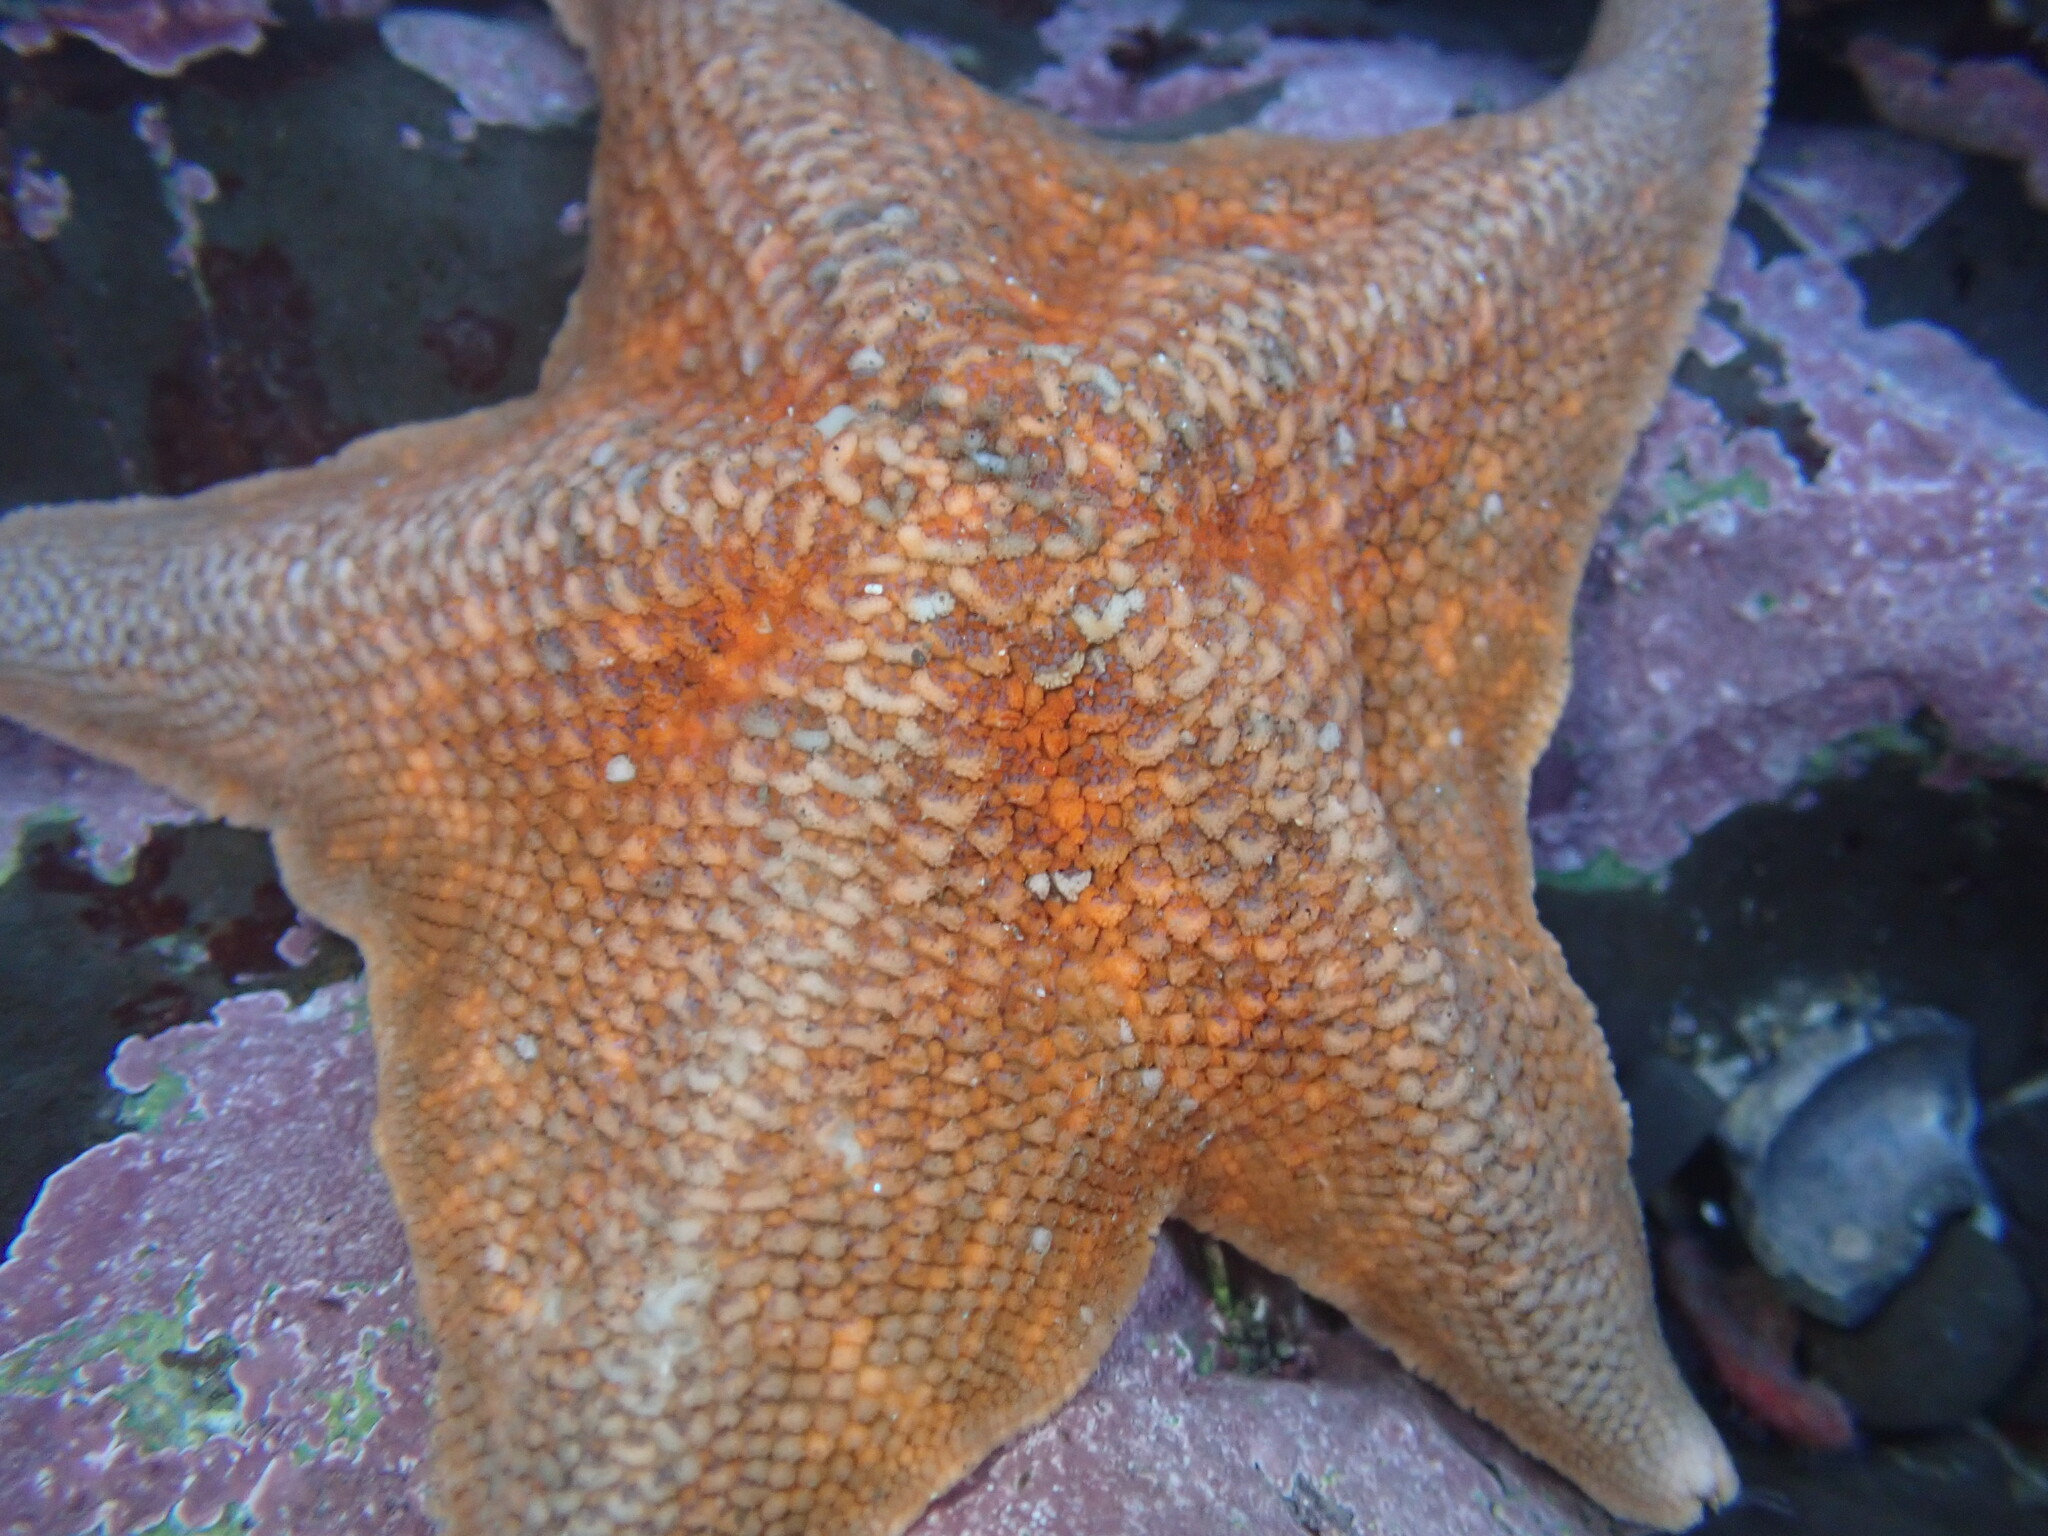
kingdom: Animalia
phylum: Echinodermata
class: Asteroidea
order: Valvatida
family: Asterinidae
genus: Patiria
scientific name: Patiria miniata
